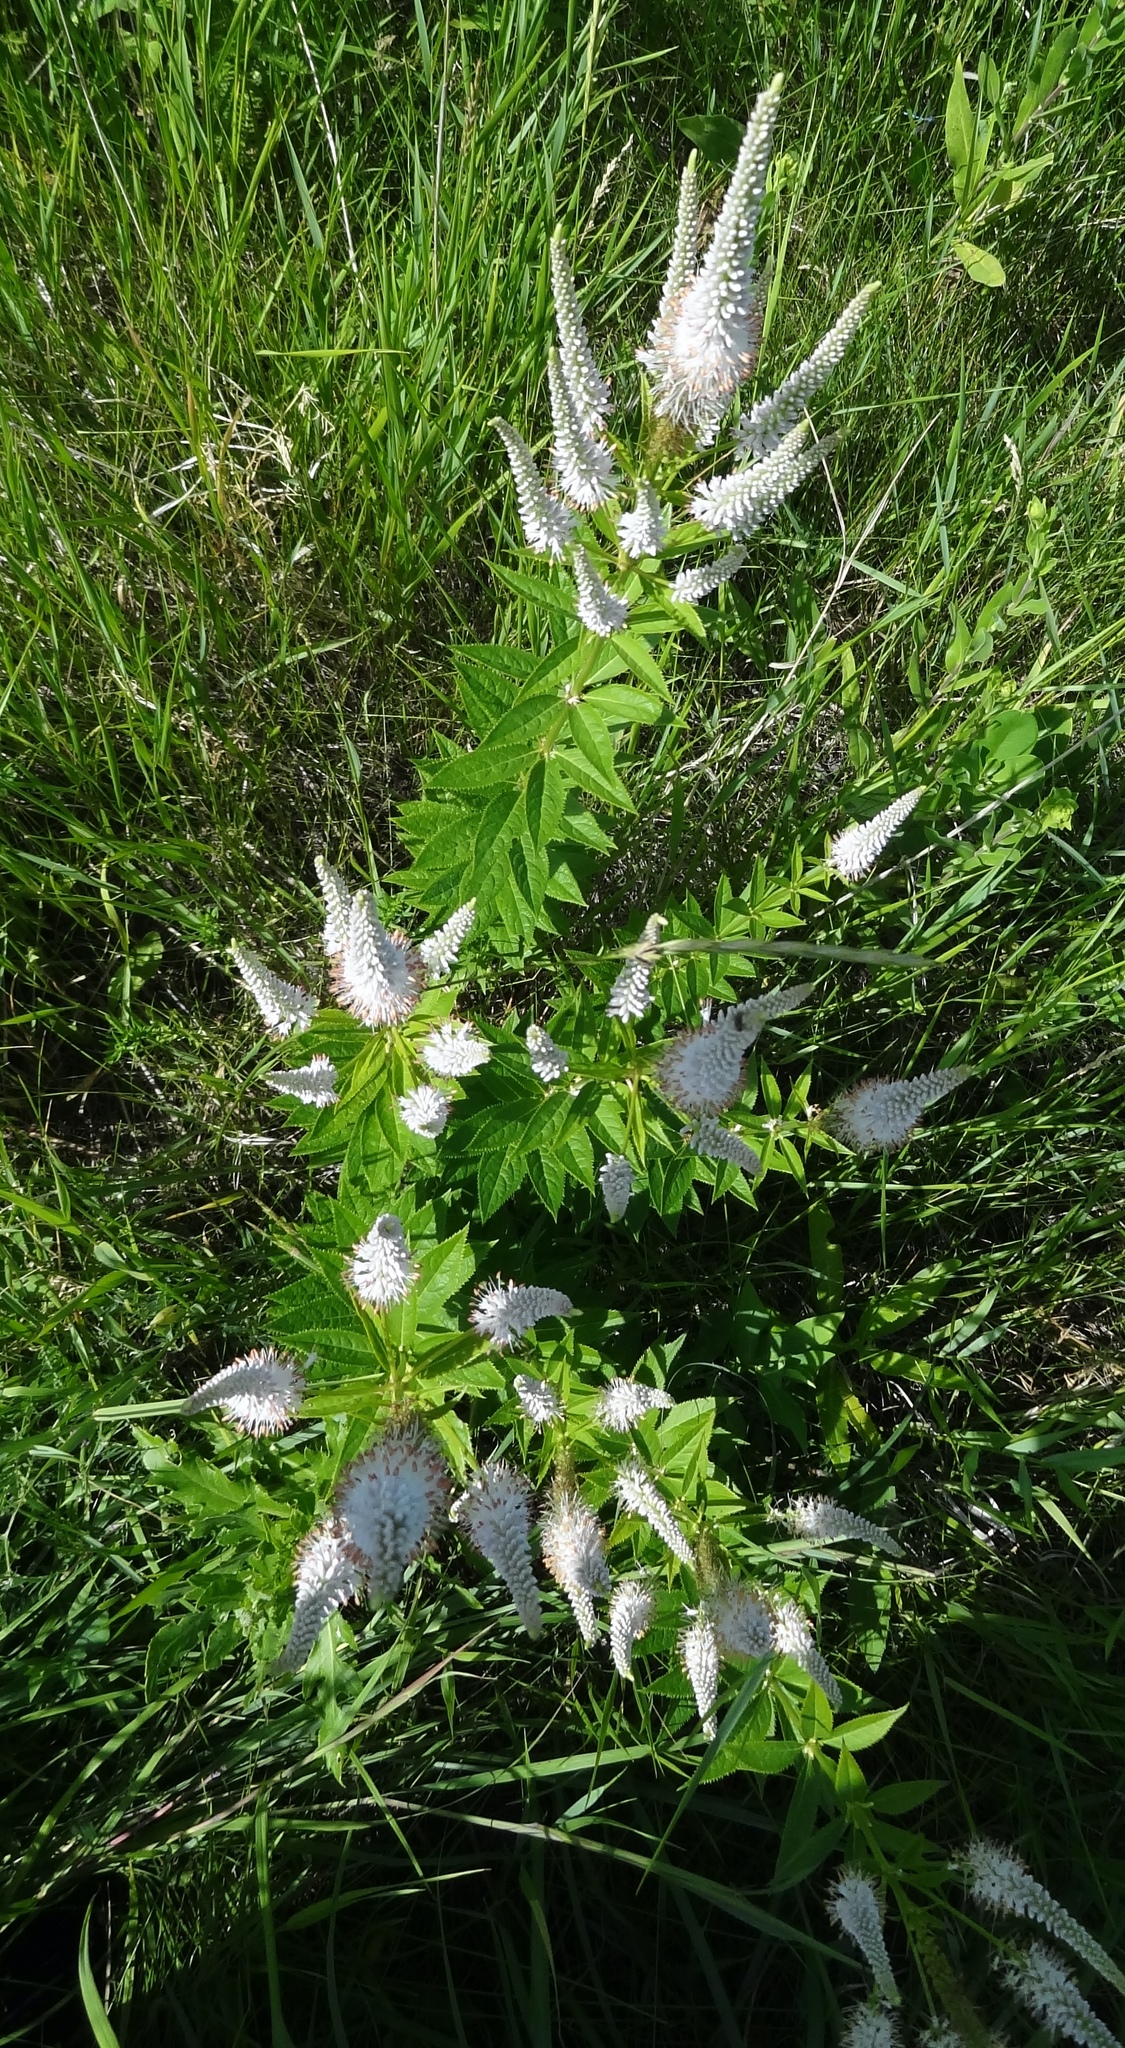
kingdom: Plantae
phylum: Tracheophyta
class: Magnoliopsida
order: Lamiales
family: Plantaginaceae
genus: Veronicastrum
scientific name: Veronicastrum virginicum
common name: Blackroot
